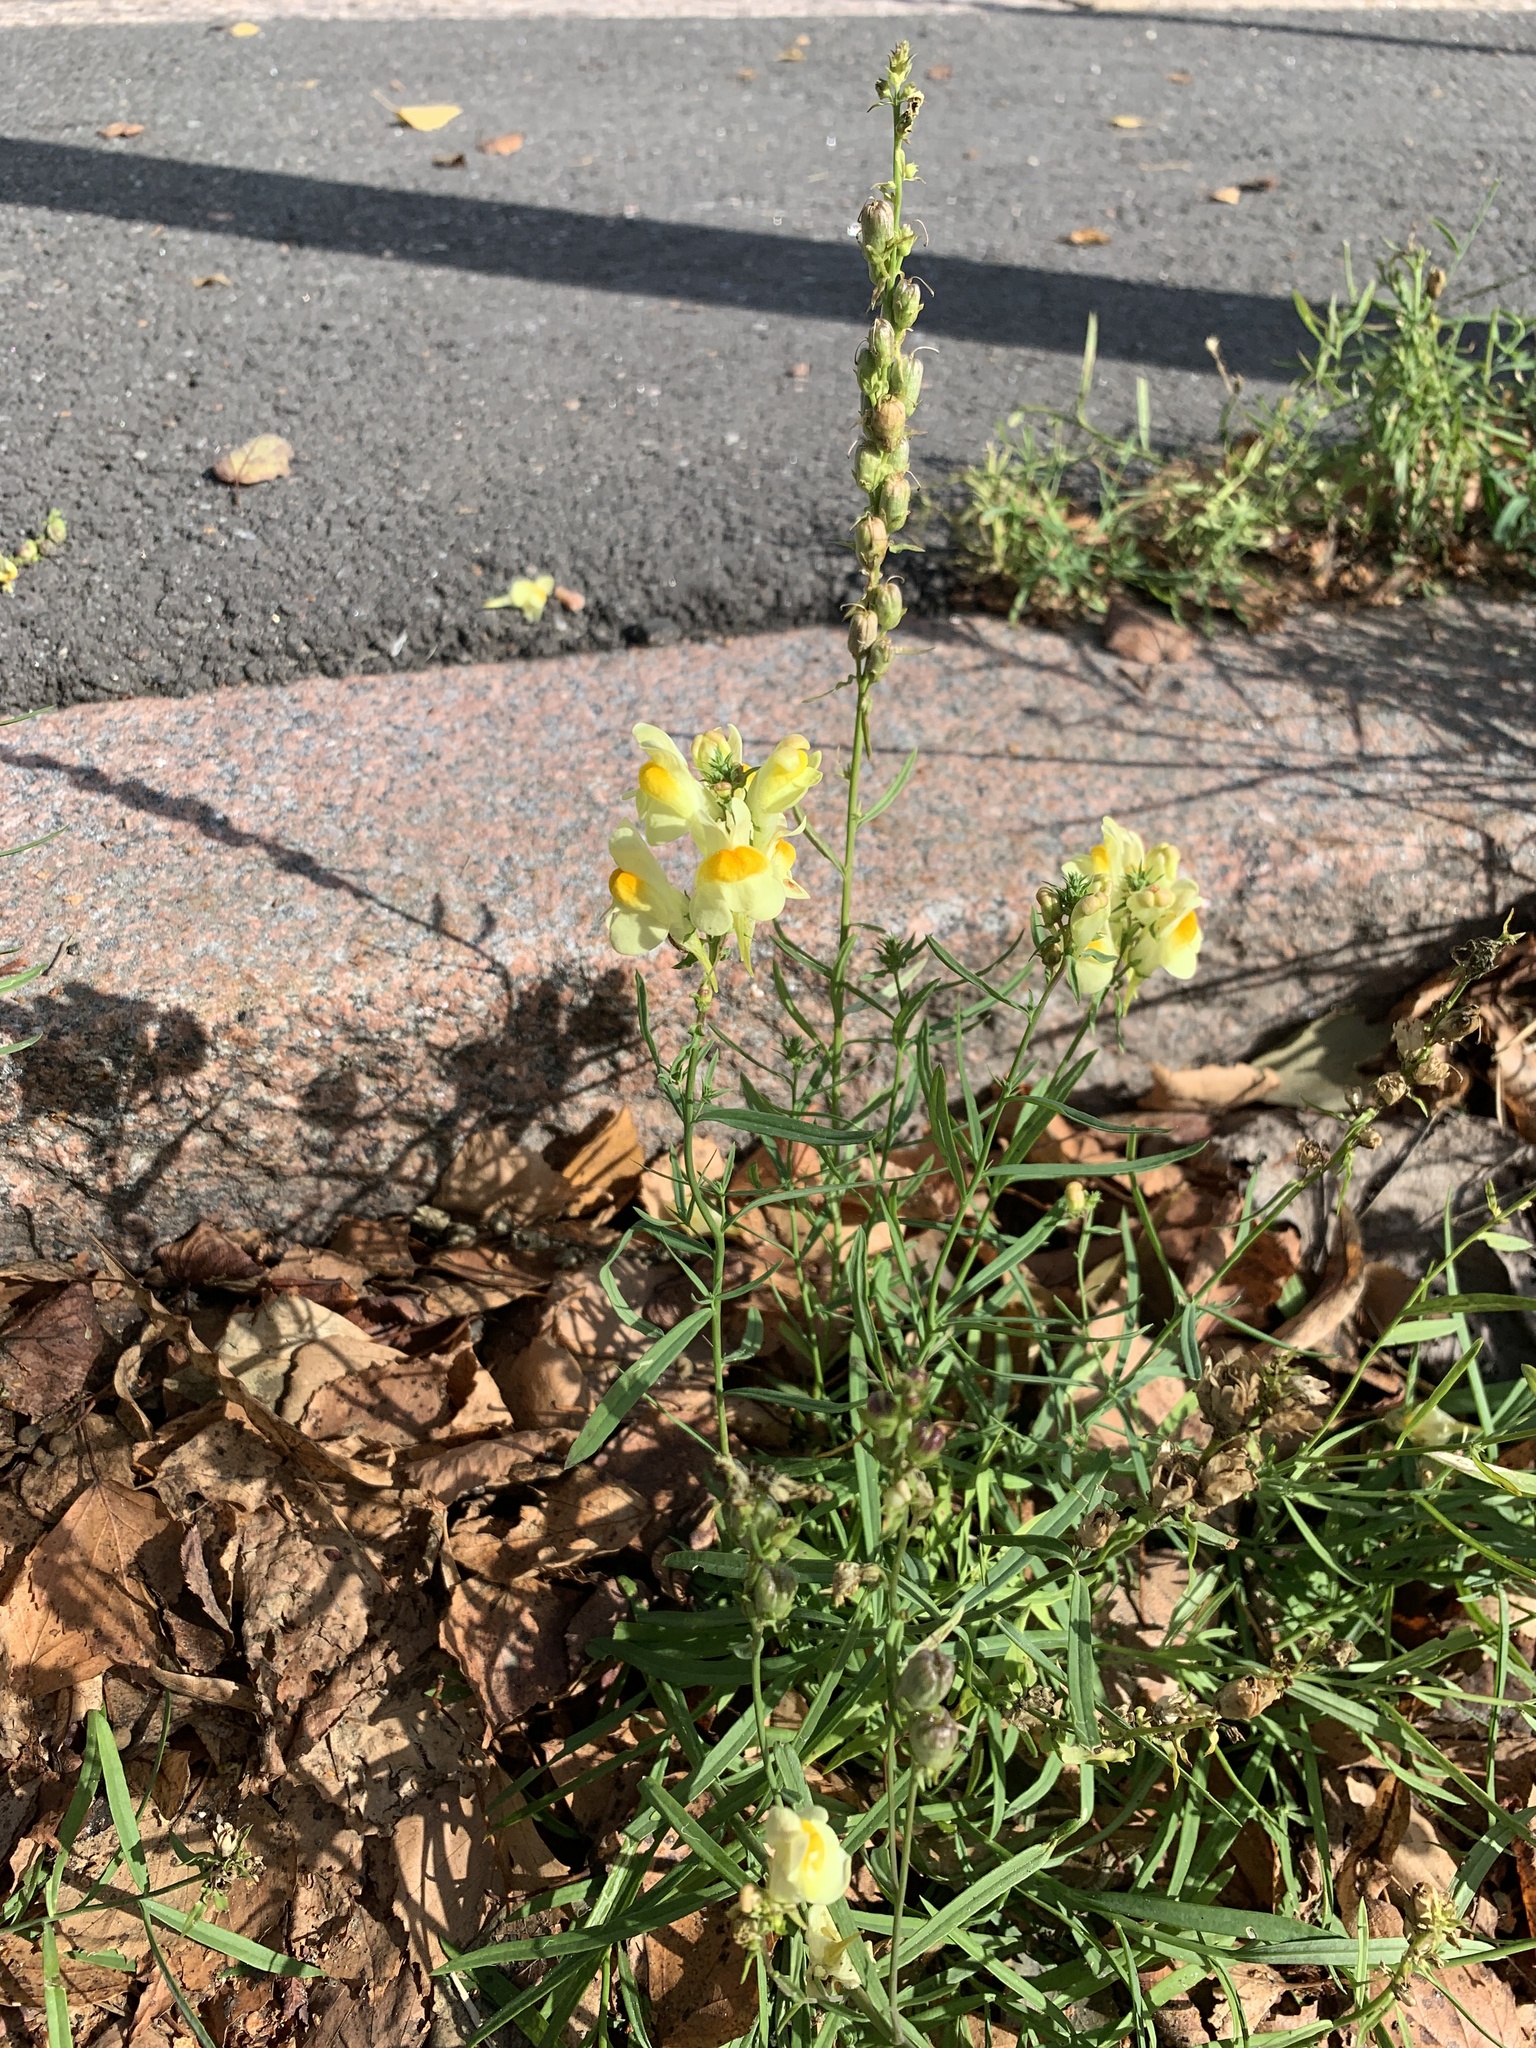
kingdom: Plantae
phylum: Tracheophyta
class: Magnoliopsida
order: Lamiales
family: Plantaginaceae
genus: Linaria
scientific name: Linaria vulgaris
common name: Butter and eggs
